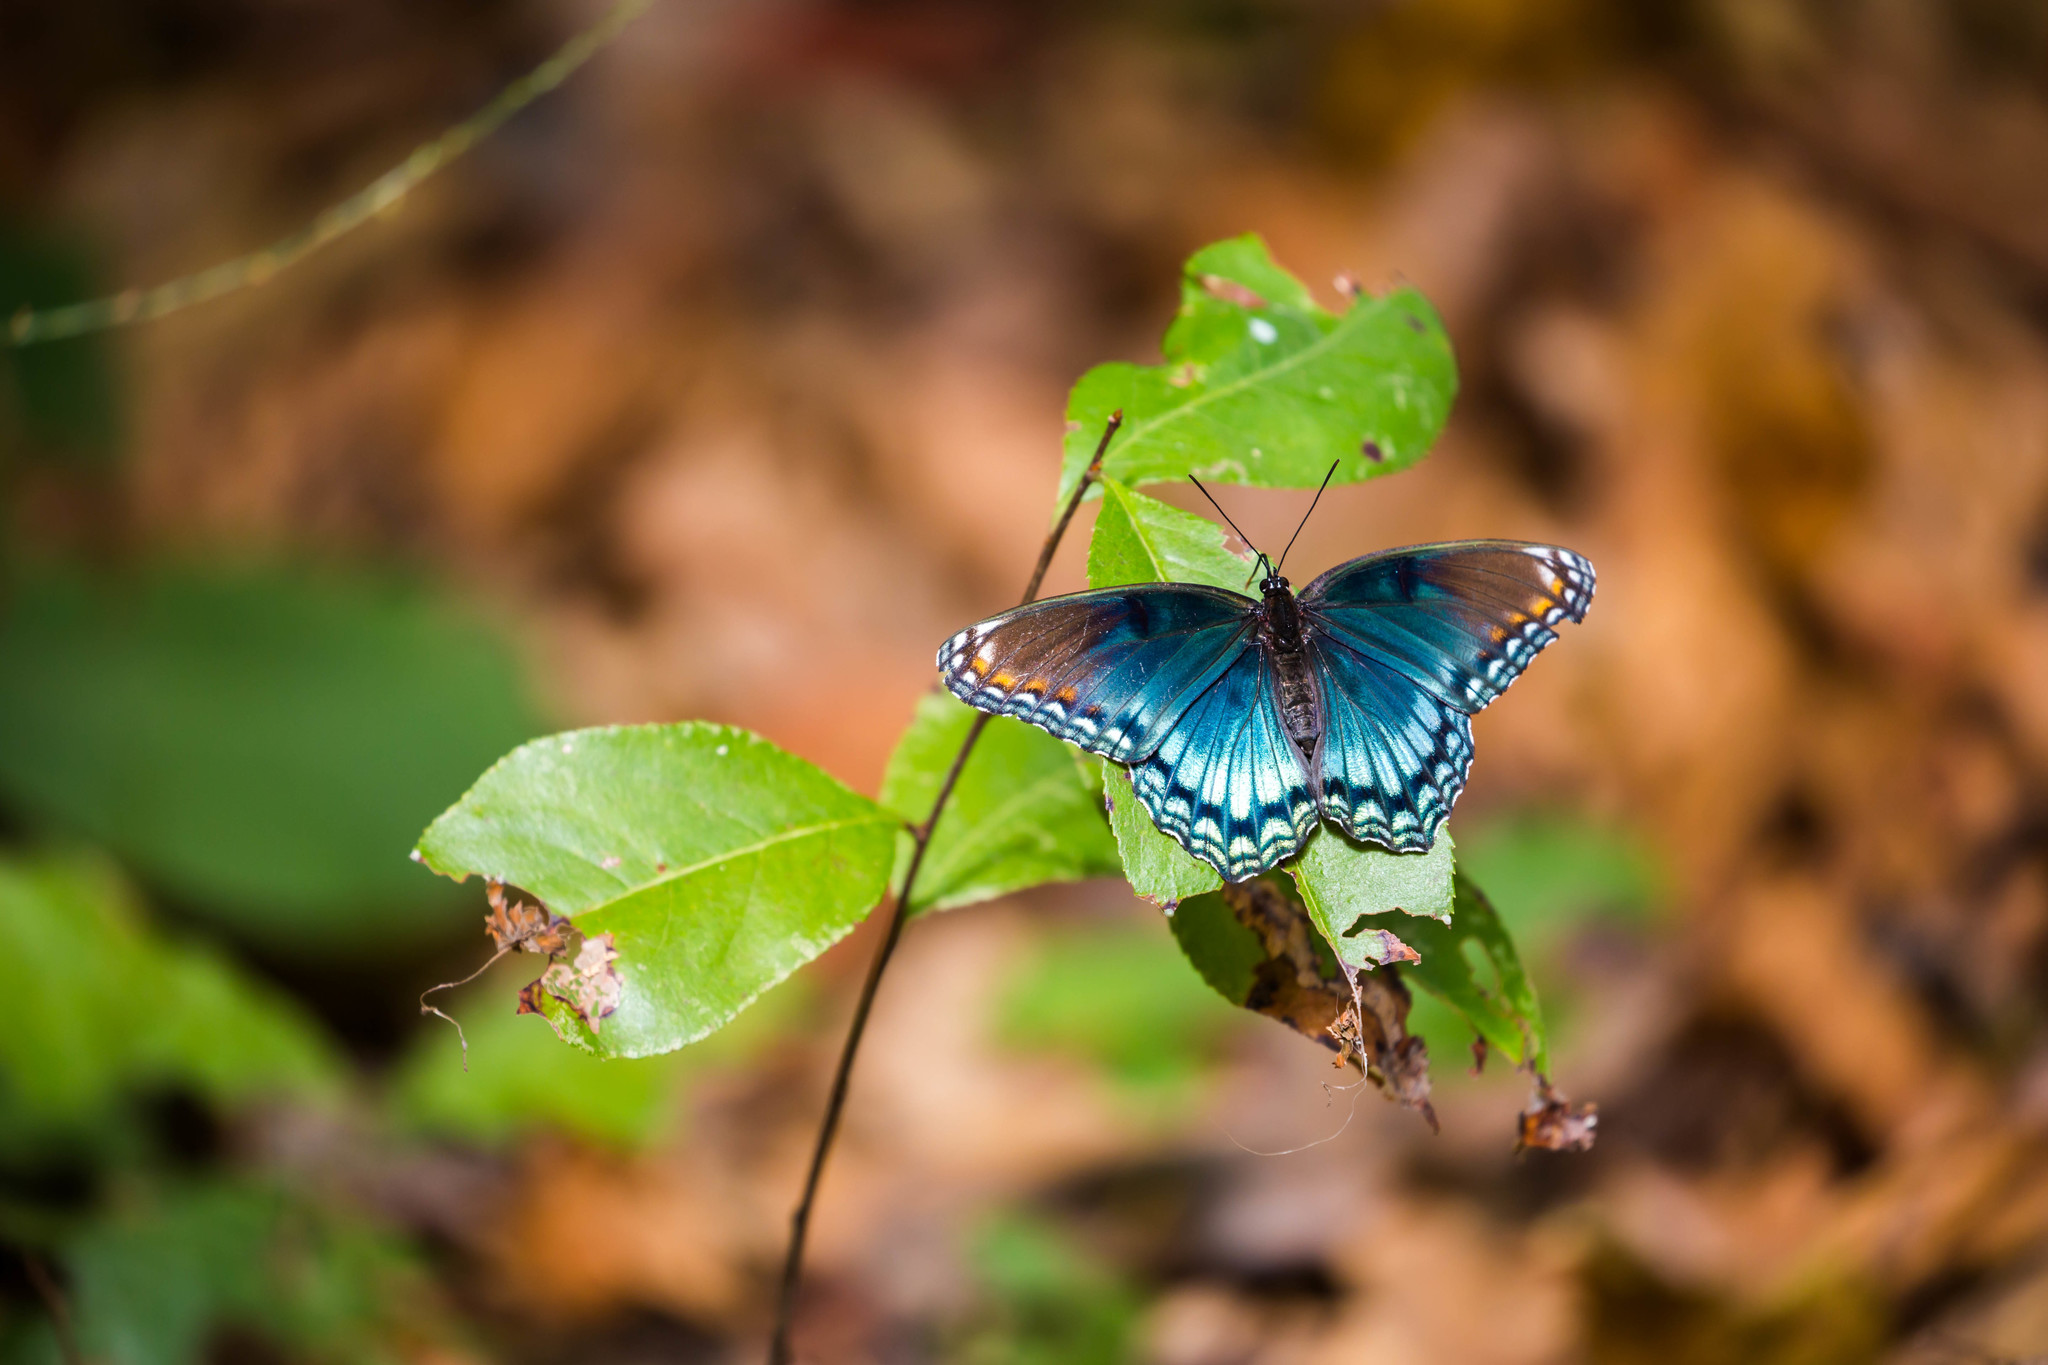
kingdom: Animalia
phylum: Arthropoda
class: Insecta
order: Lepidoptera
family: Nymphalidae
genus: Limenitis
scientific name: Limenitis astyanax
